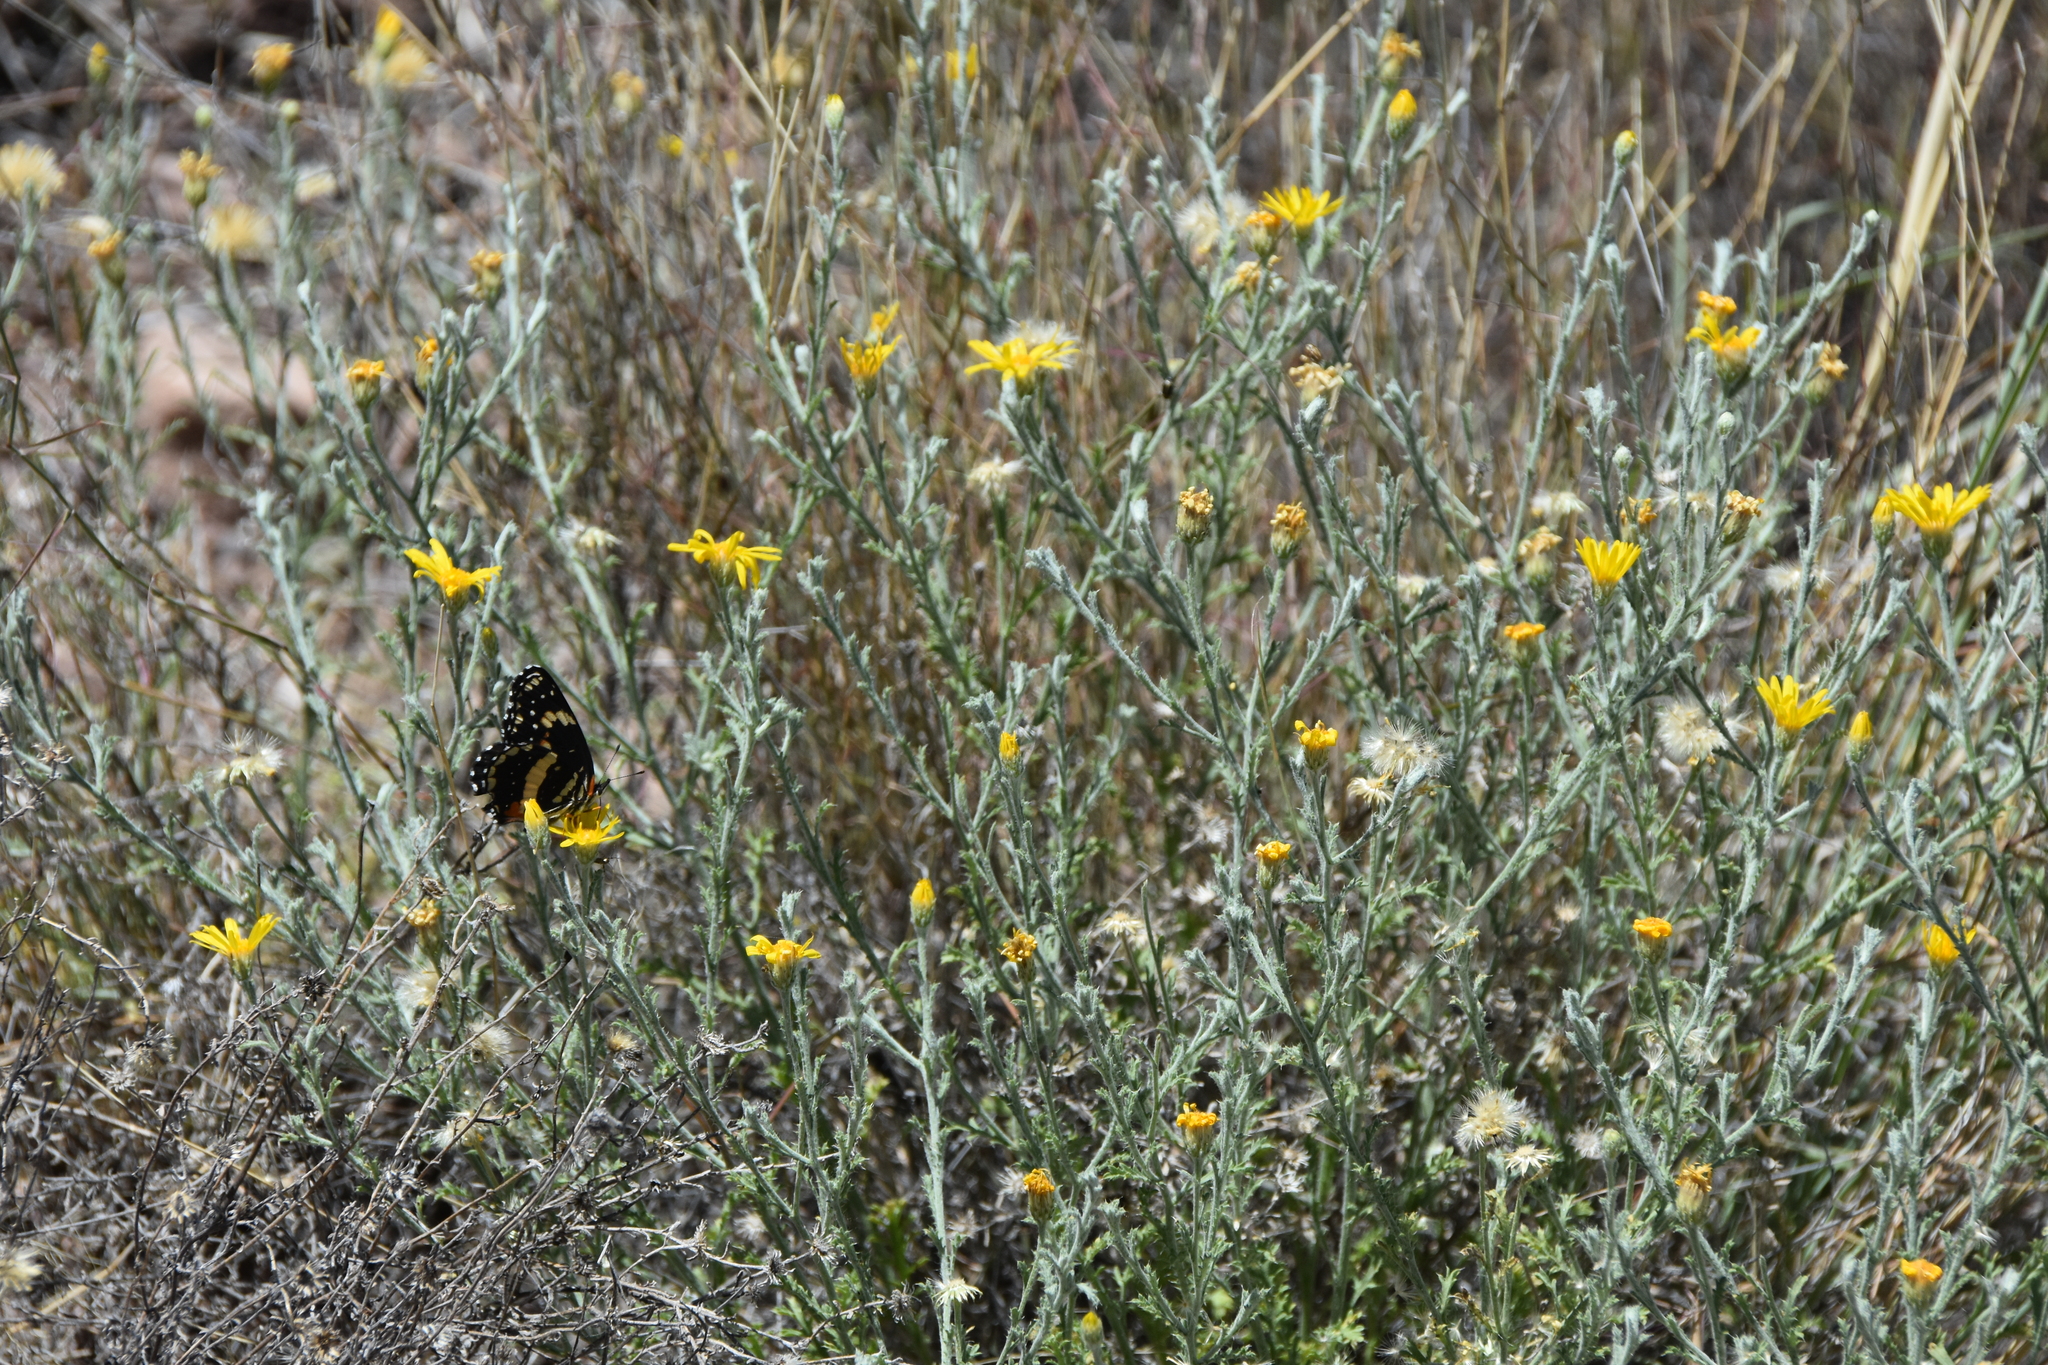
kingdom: Animalia
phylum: Arthropoda
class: Insecta
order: Lepidoptera
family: Nymphalidae
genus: Chlosyne
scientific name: Chlosyne lacinia
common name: Bordered patch
